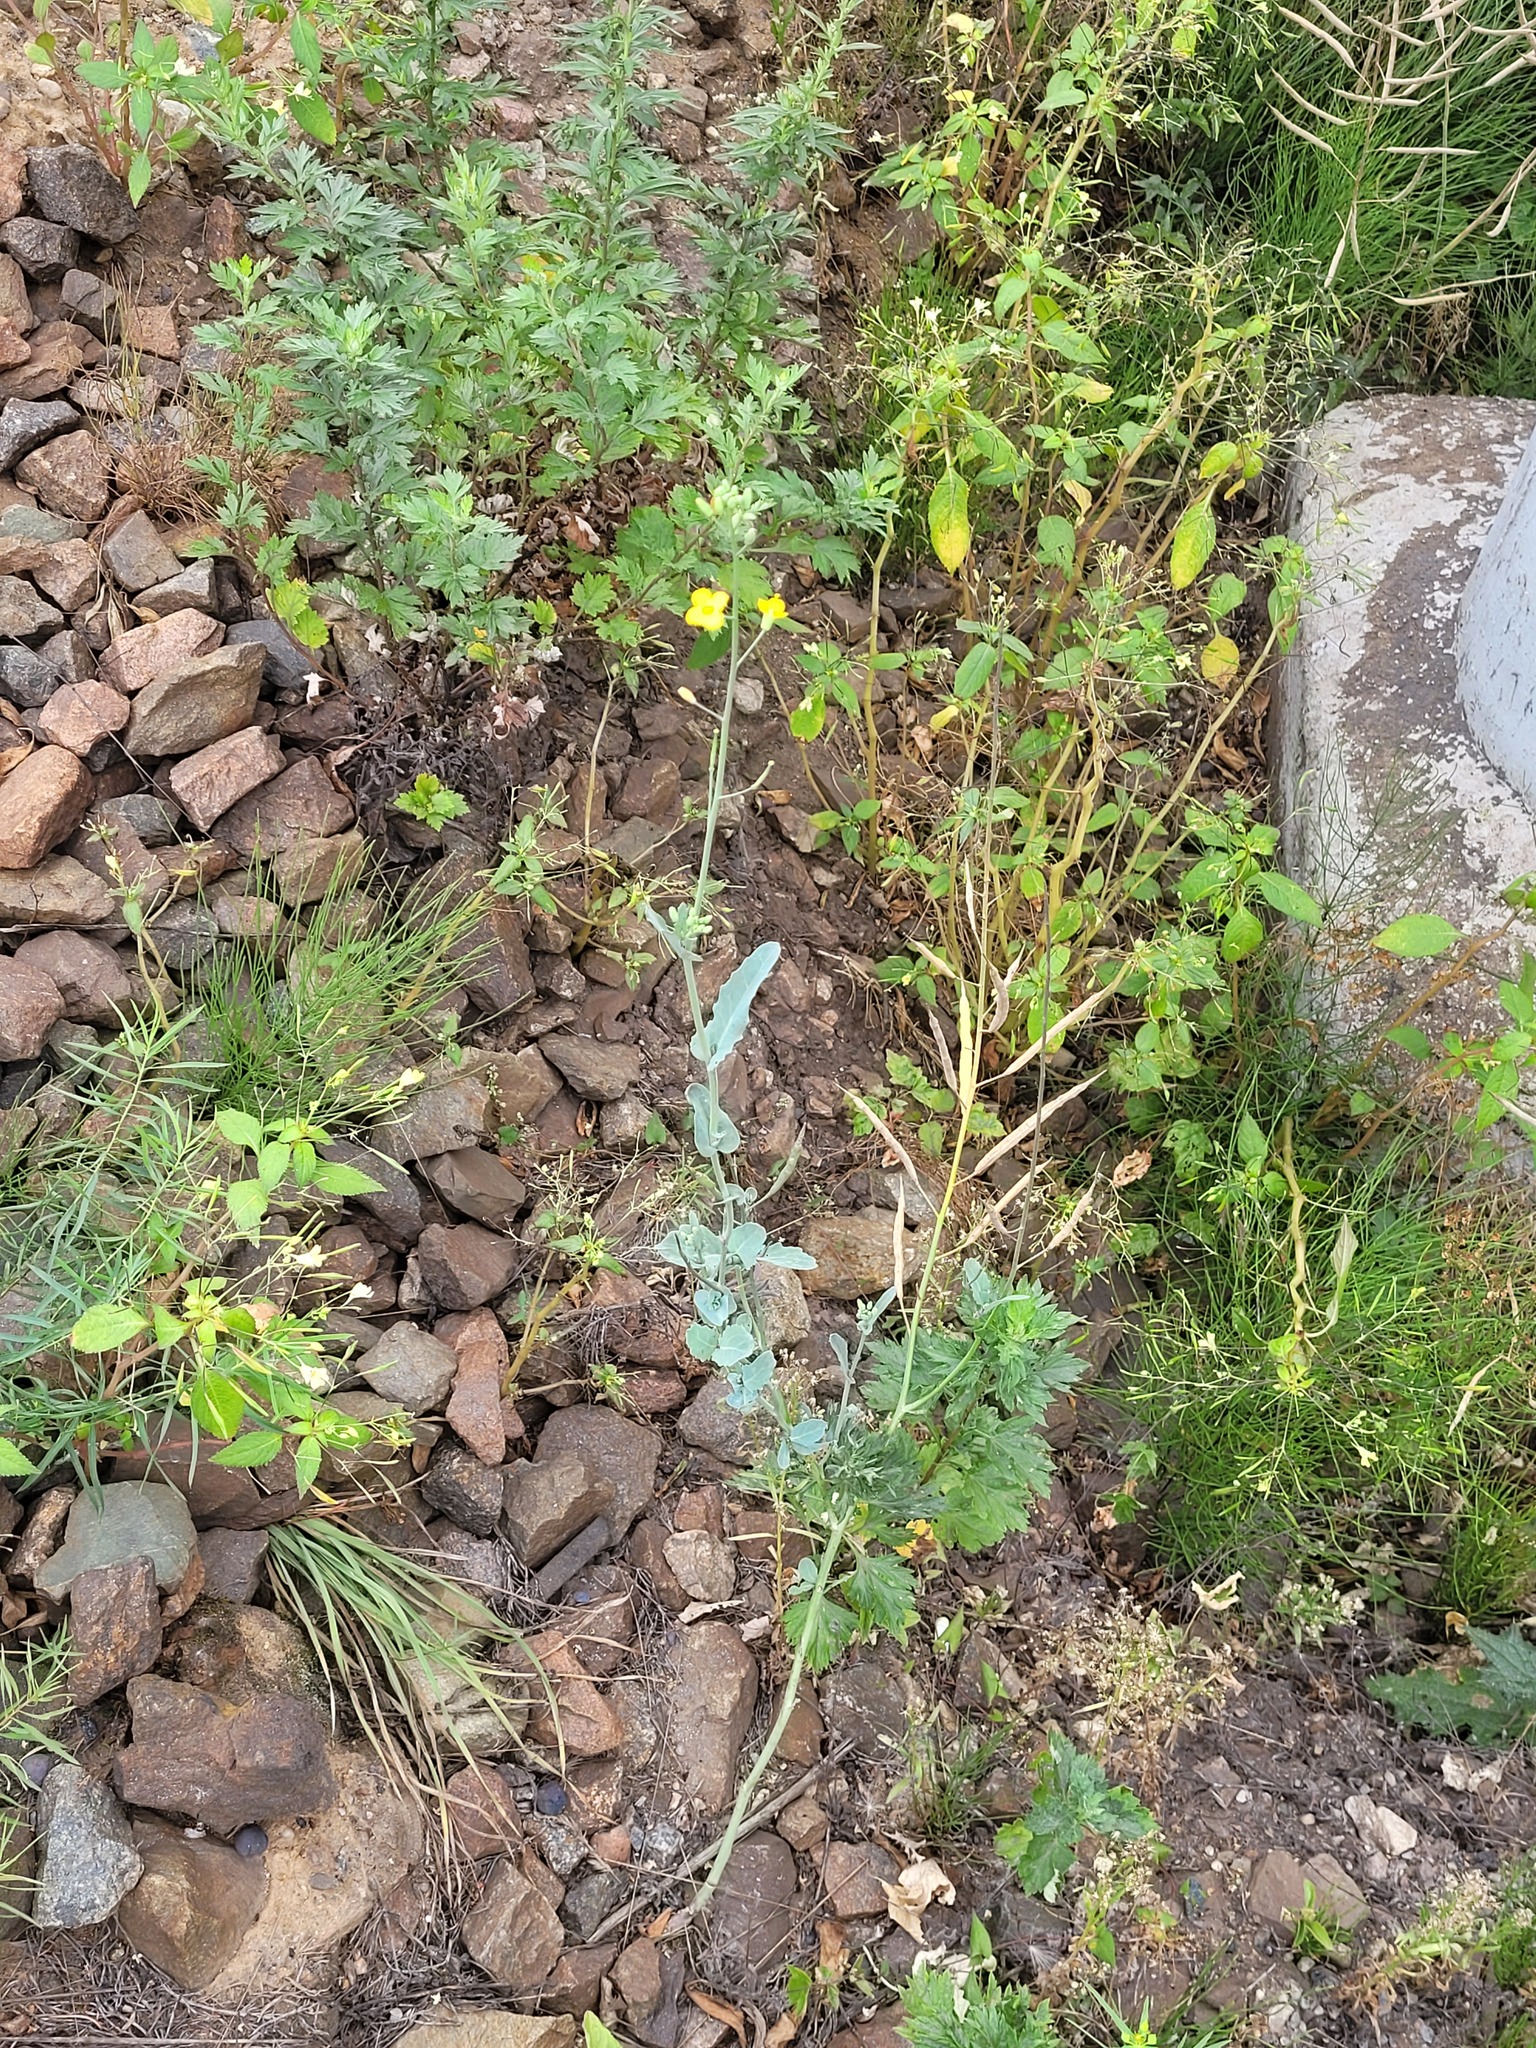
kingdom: Plantae
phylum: Tracheophyta
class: Magnoliopsida
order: Brassicales
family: Brassicaceae
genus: Brassica
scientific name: Brassica napus
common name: Rape
